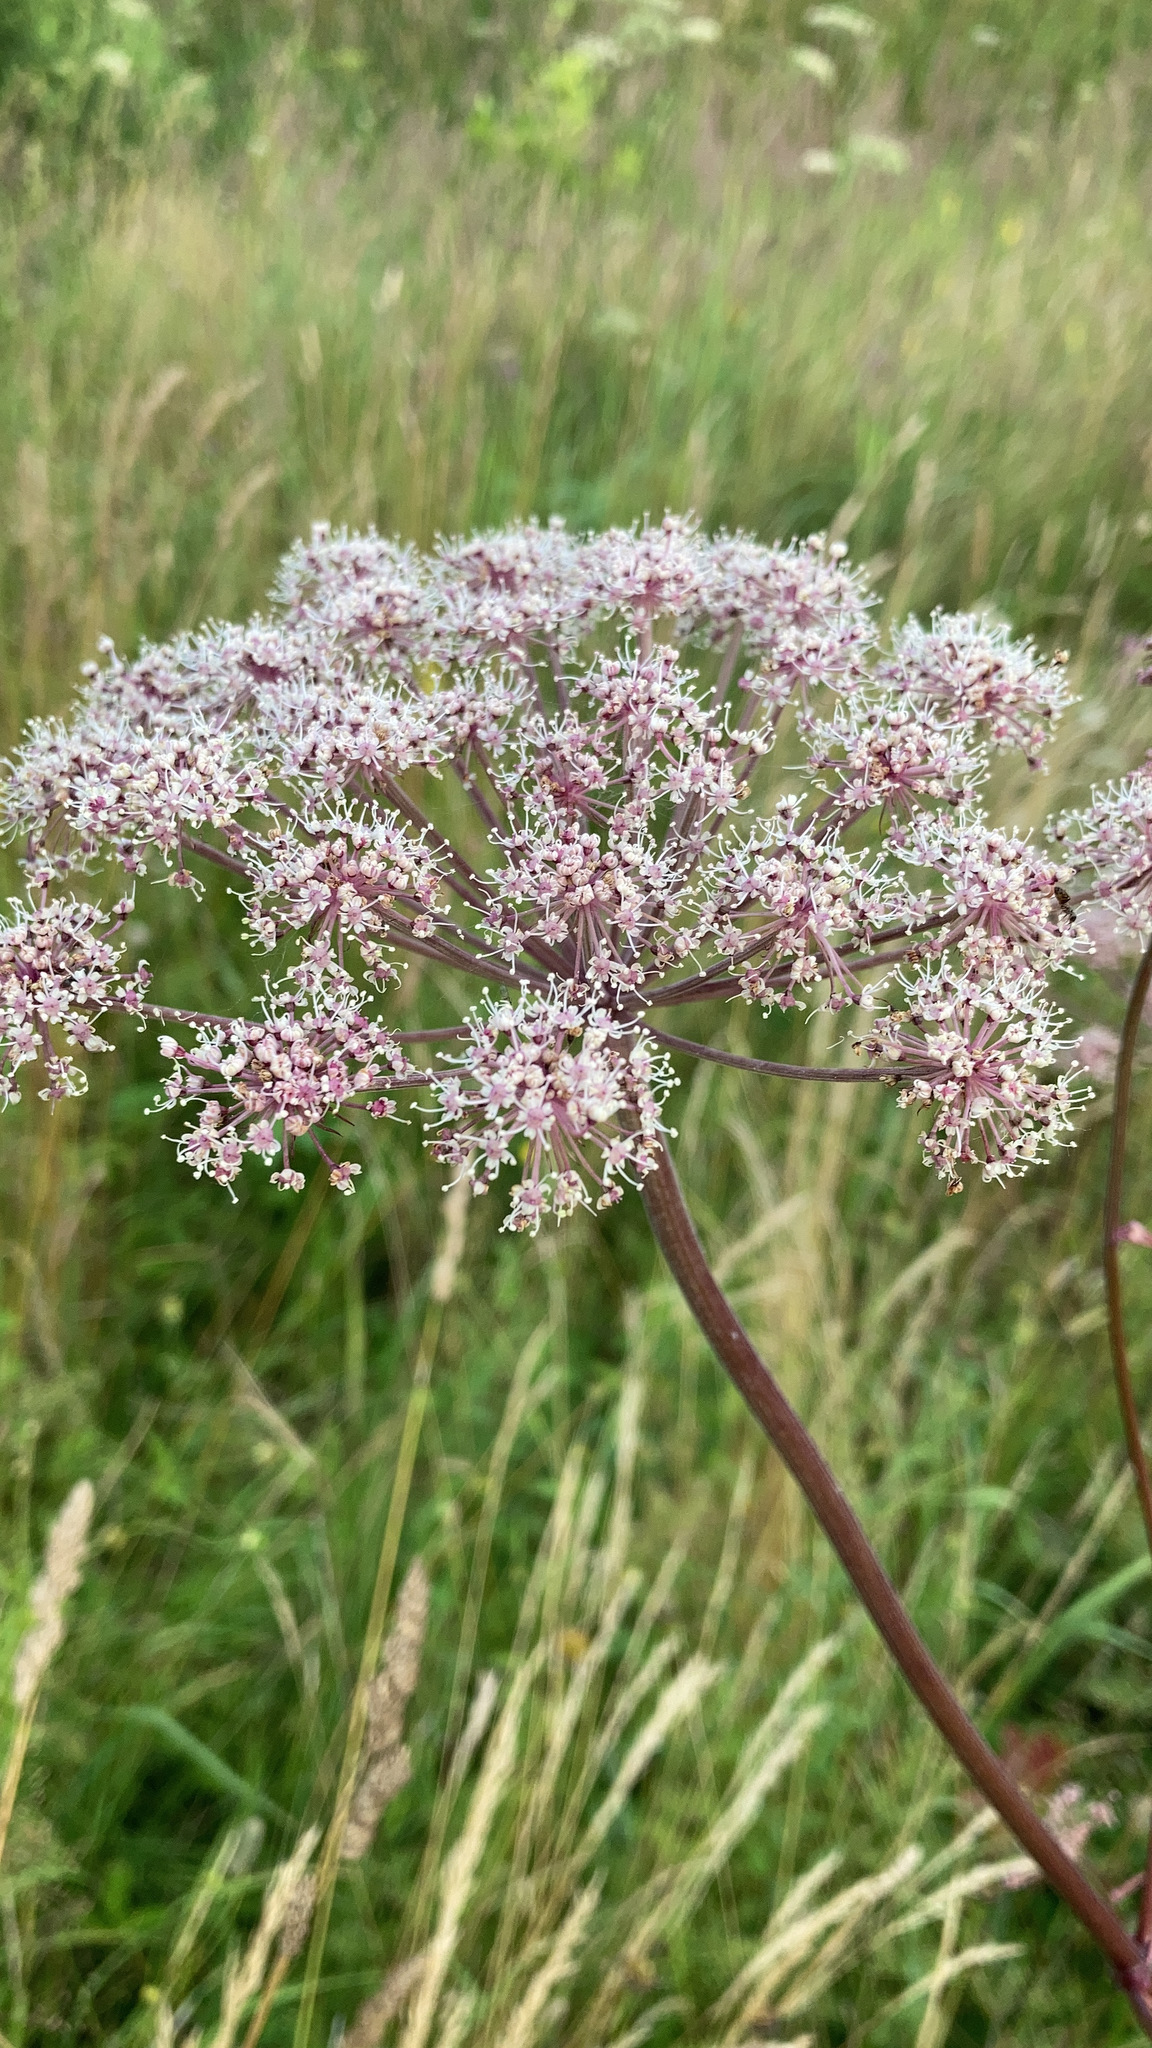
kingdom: Plantae
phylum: Tracheophyta
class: Magnoliopsida
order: Apiales
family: Apiaceae
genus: Angelica
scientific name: Angelica sylvestris
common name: Wild angelica
